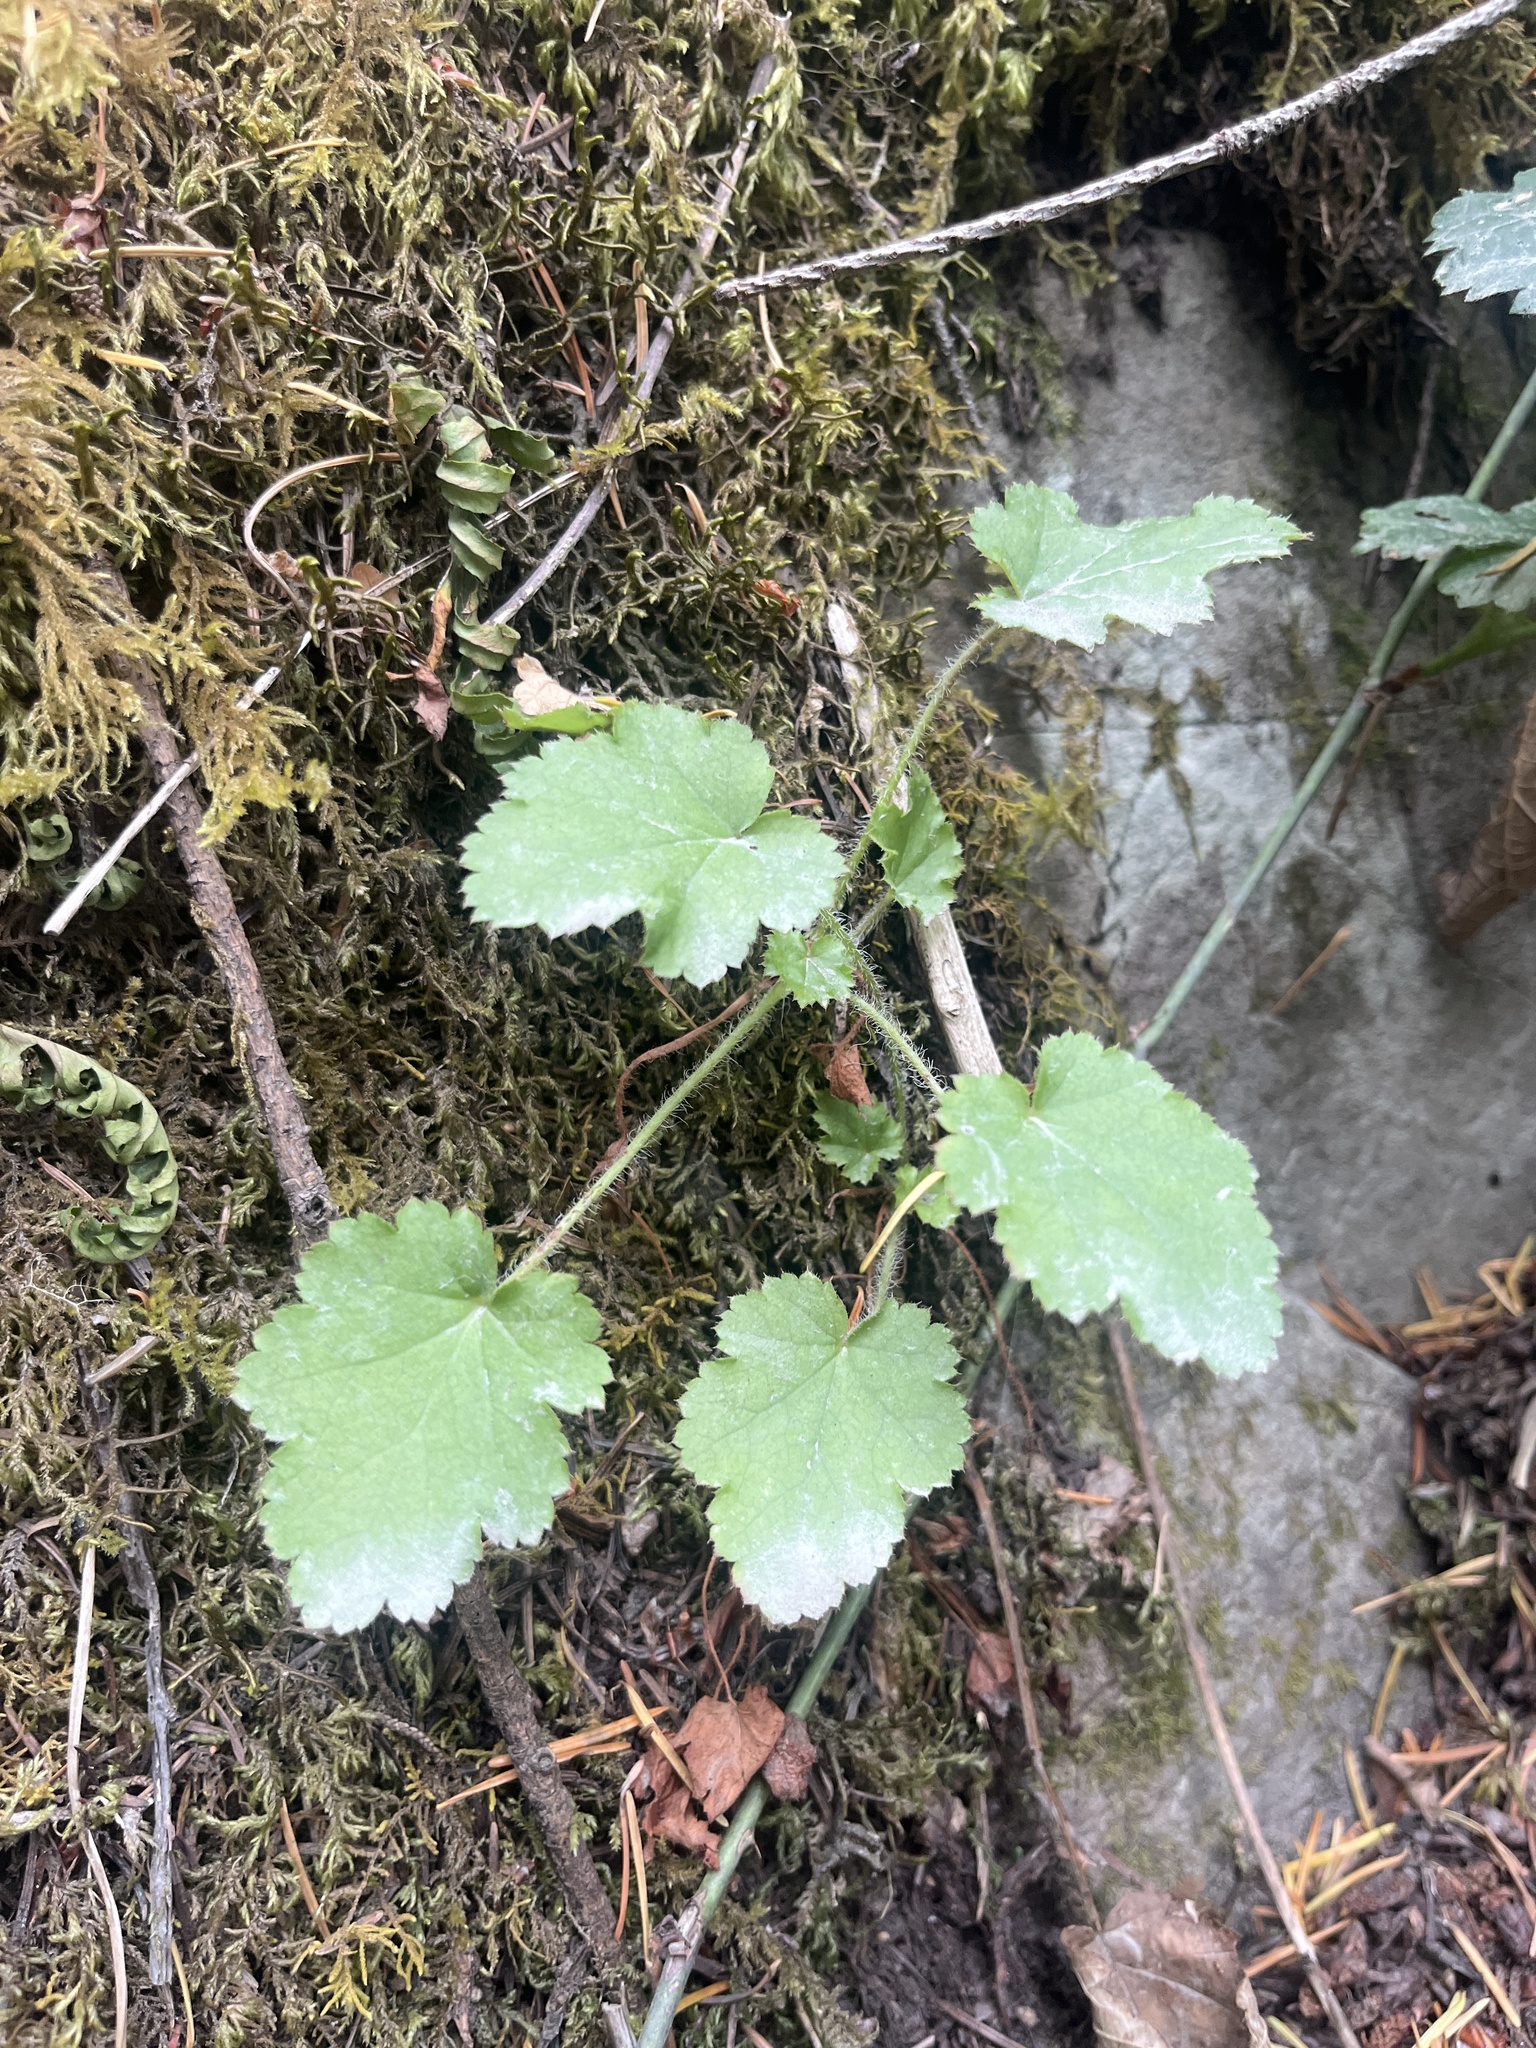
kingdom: Plantae
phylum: Tracheophyta
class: Magnoliopsida
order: Saxifragales
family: Saxifragaceae
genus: Heuchera
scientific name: Heuchera micrantha
